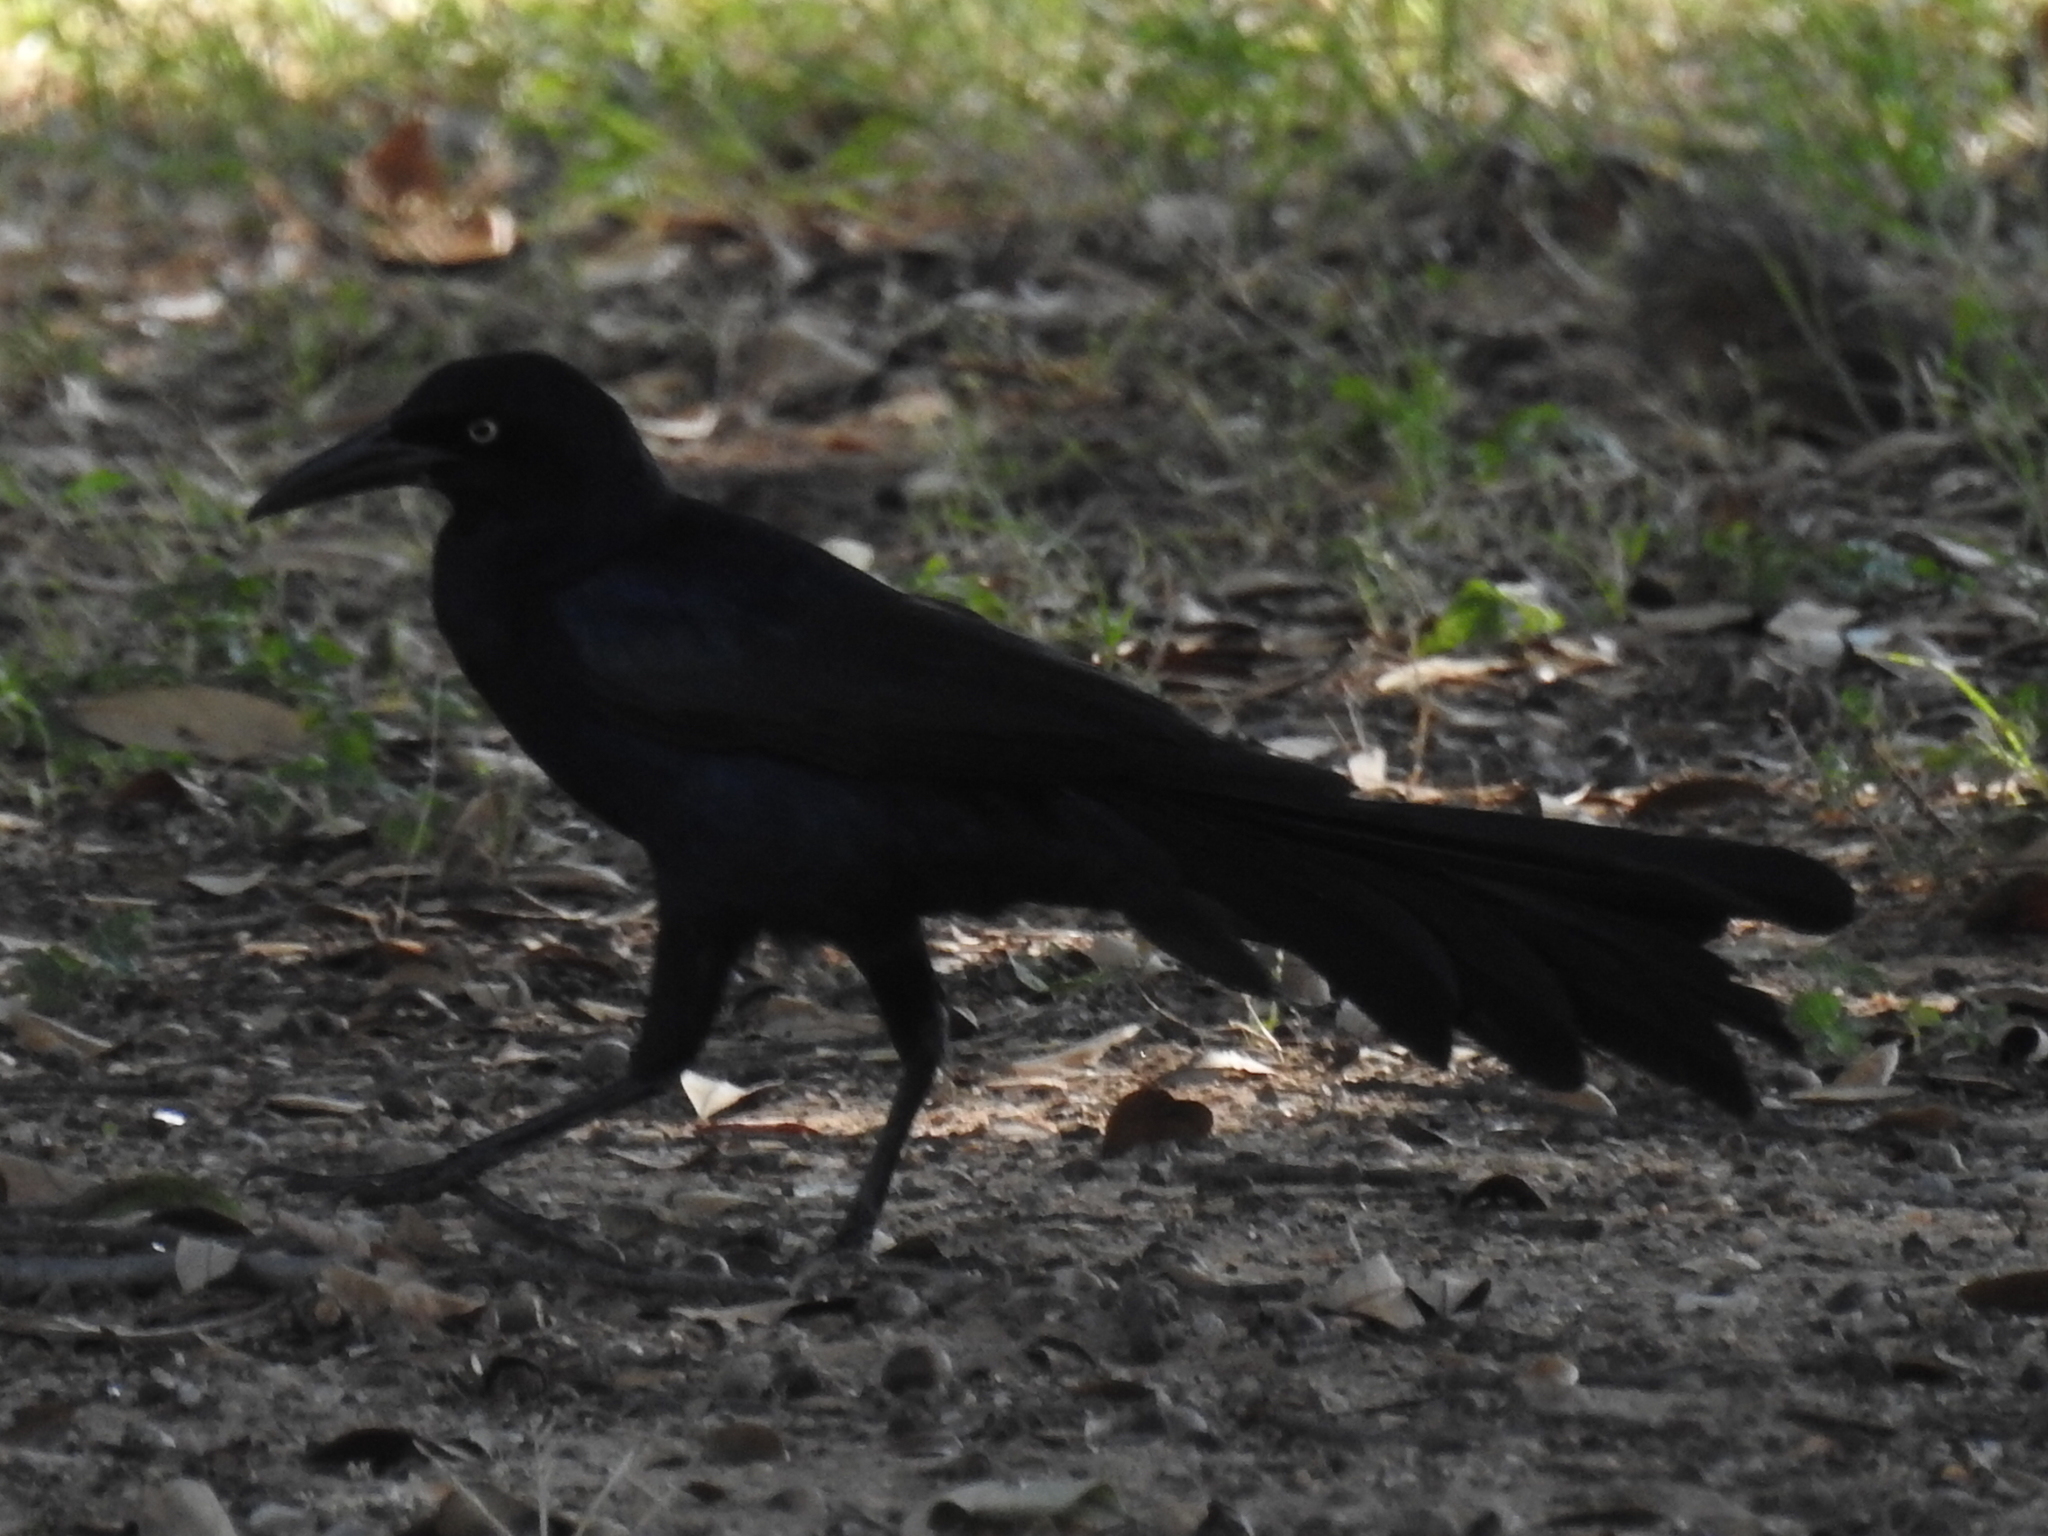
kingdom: Animalia
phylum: Chordata
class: Aves
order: Passeriformes
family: Icteridae
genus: Quiscalus
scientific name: Quiscalus mexicanus
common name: Great-tailed grackle
